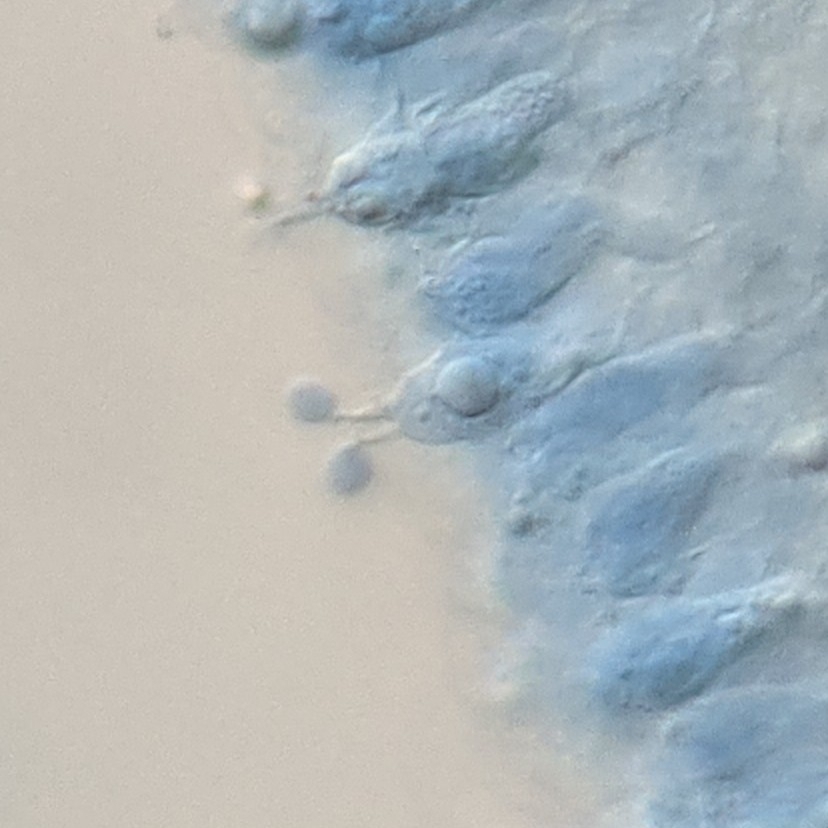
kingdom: Fungi
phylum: Basidiomycota
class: Agaricomycetes
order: Agaricales
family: Amanitaceae
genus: Amanita
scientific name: Amanita bisporigera
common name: Eastern north american destroying angel
